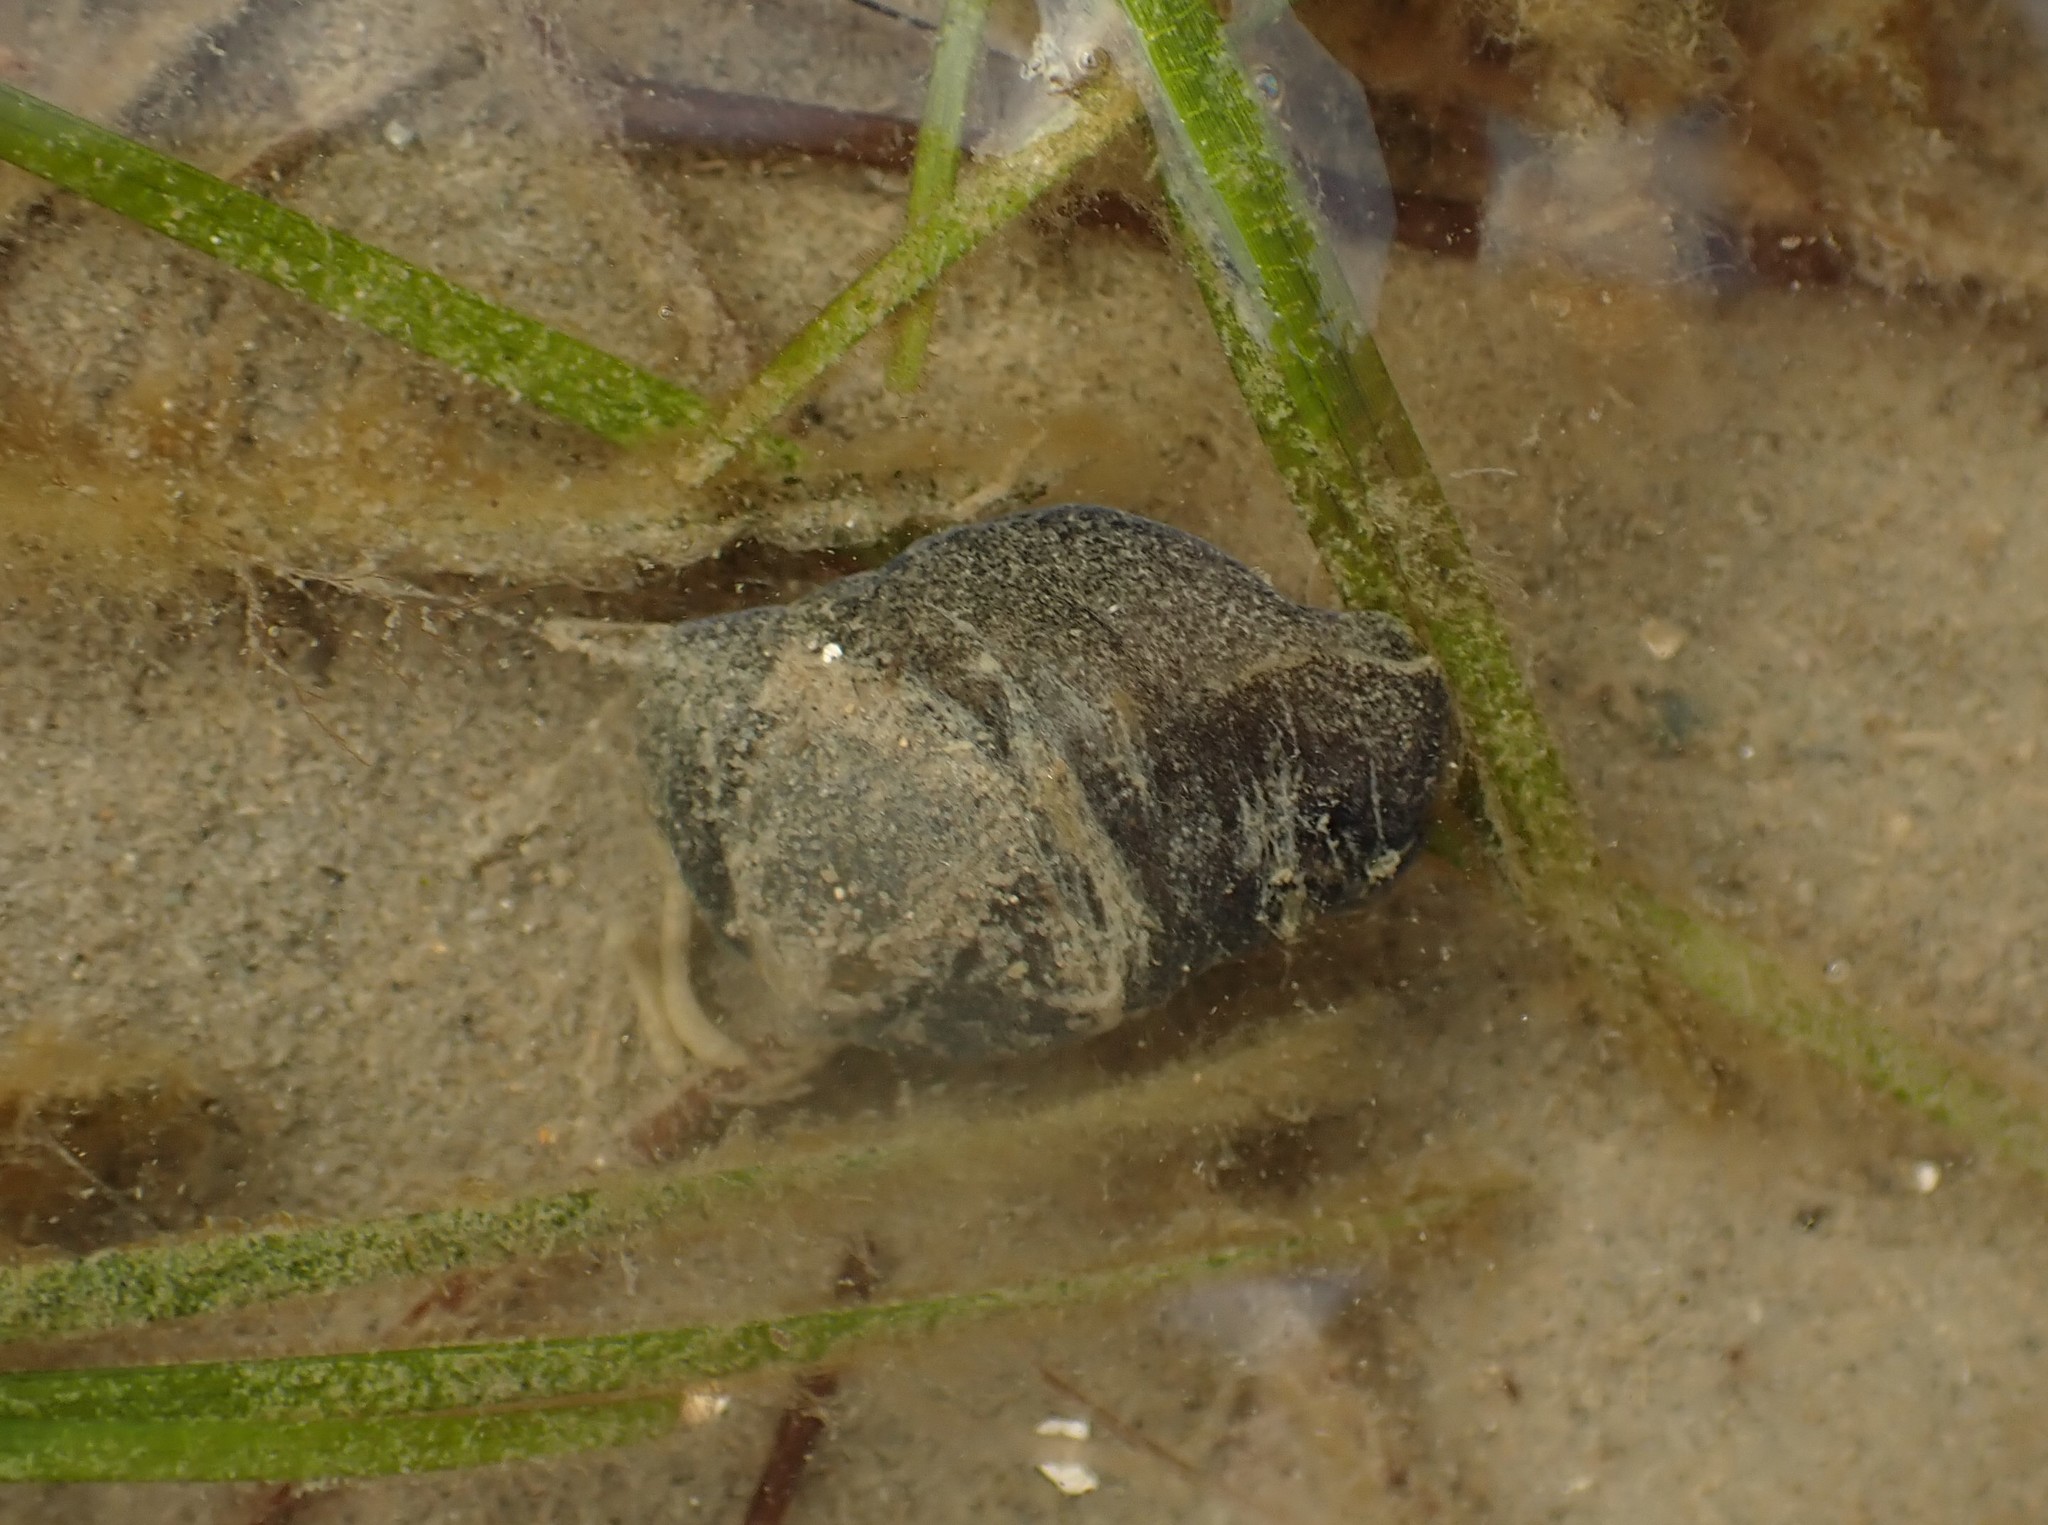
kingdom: Animalia
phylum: Mollusca
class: Gastropoda
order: Cephalaspidea
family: Haminoeidae
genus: Papawera
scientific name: Papawera zelandiae
